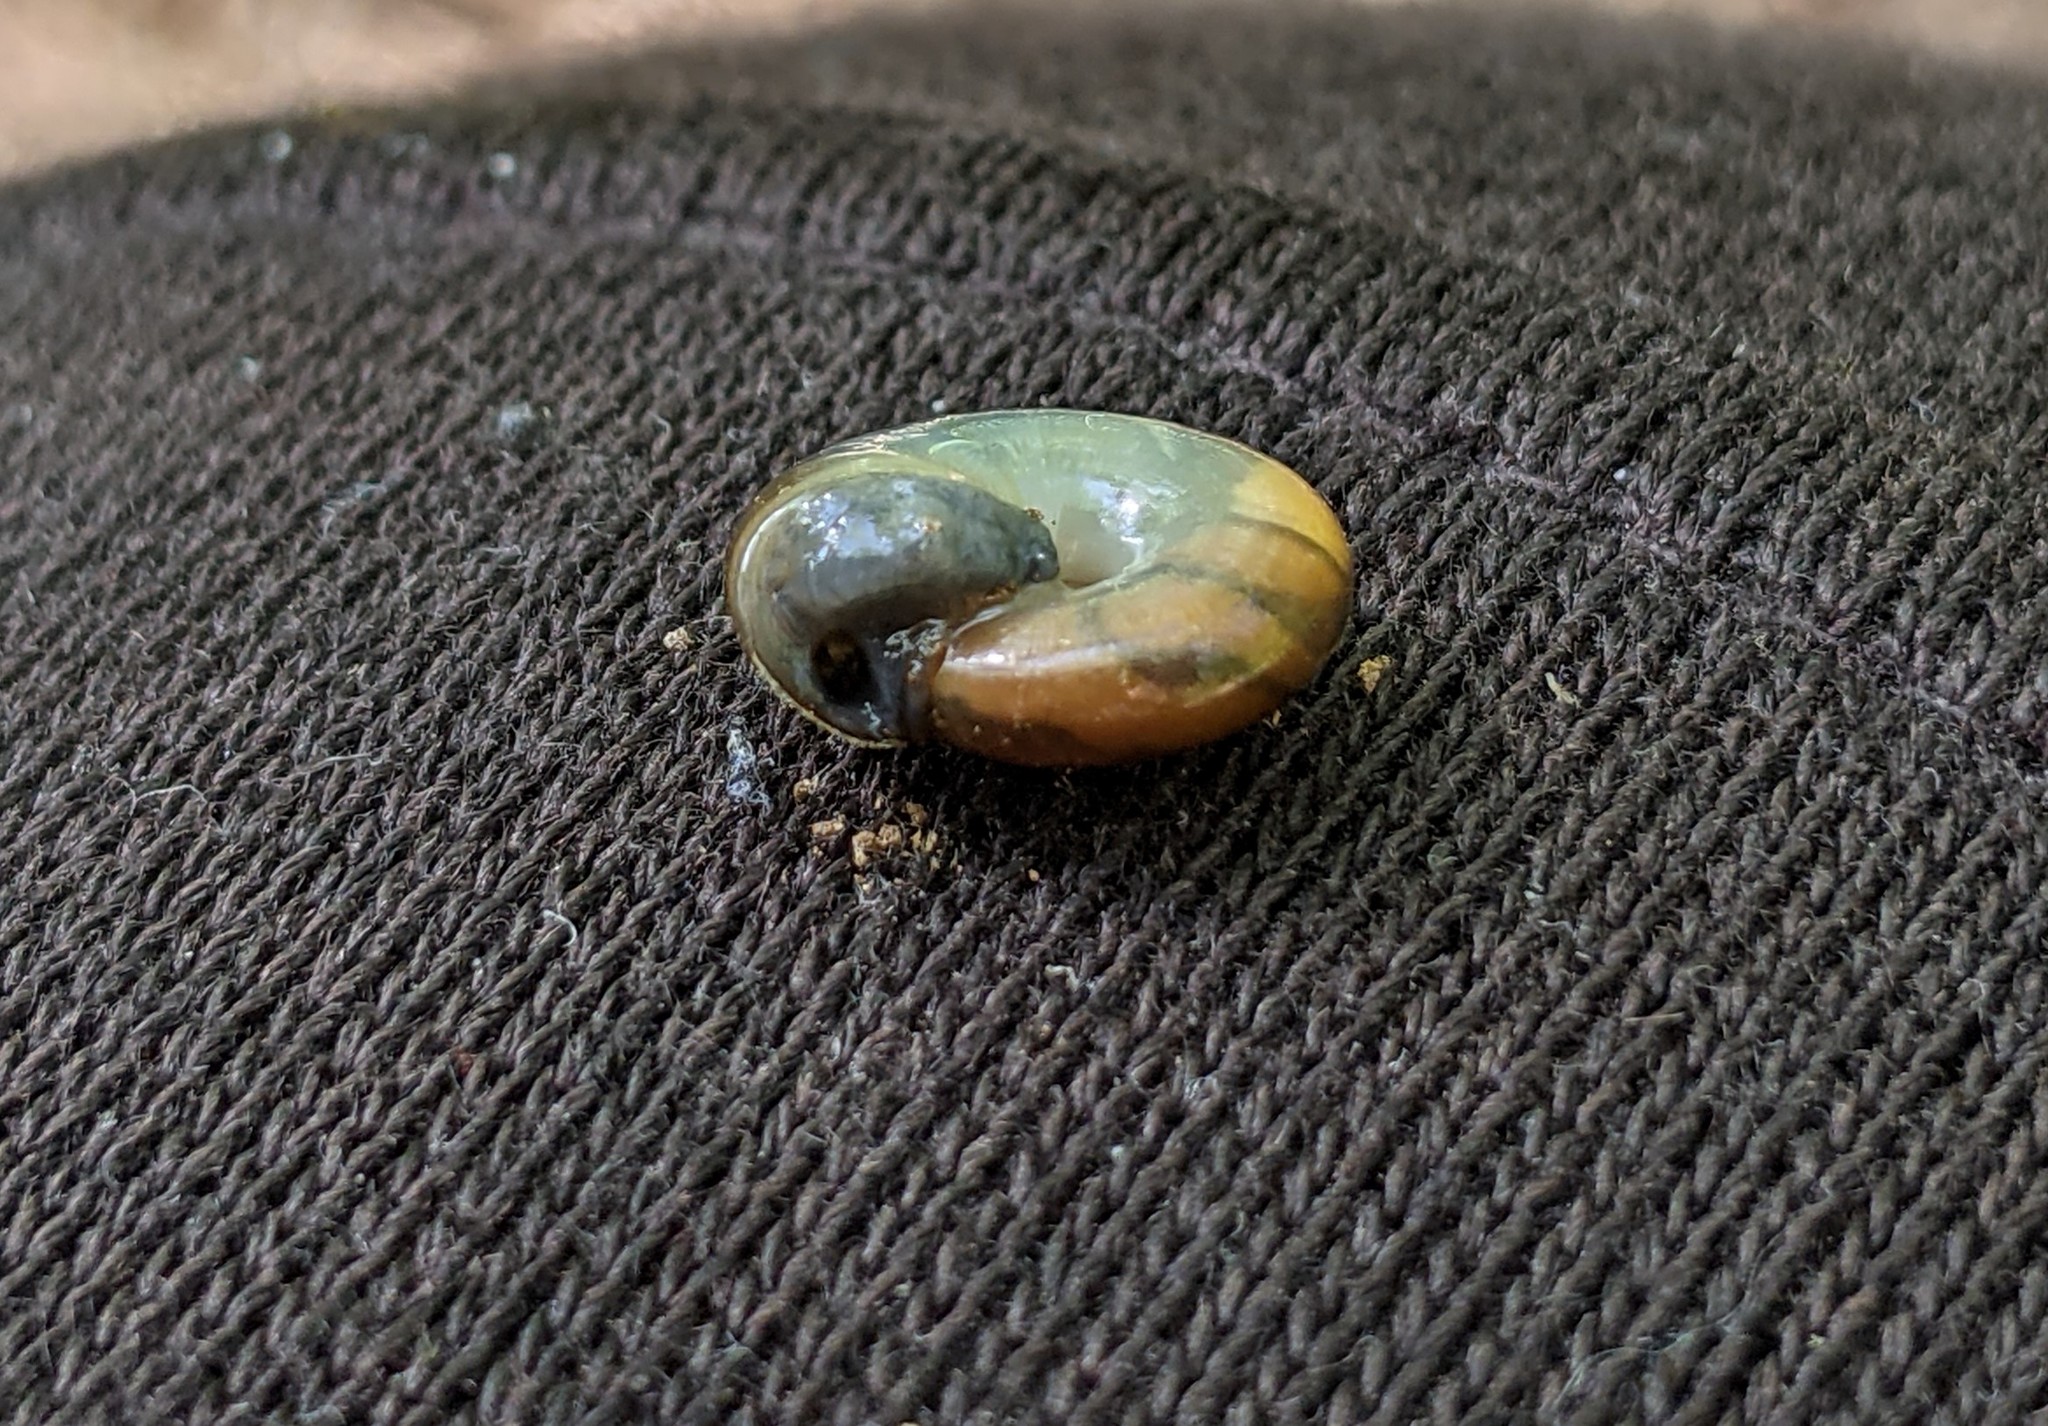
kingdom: Animalia
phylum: Mollusca
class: Gastropoda
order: Stylommatophora
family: Oxychilidae
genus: Oxychilus
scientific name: Oxychilus draparnaudi
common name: Draparnaud's glass snail
